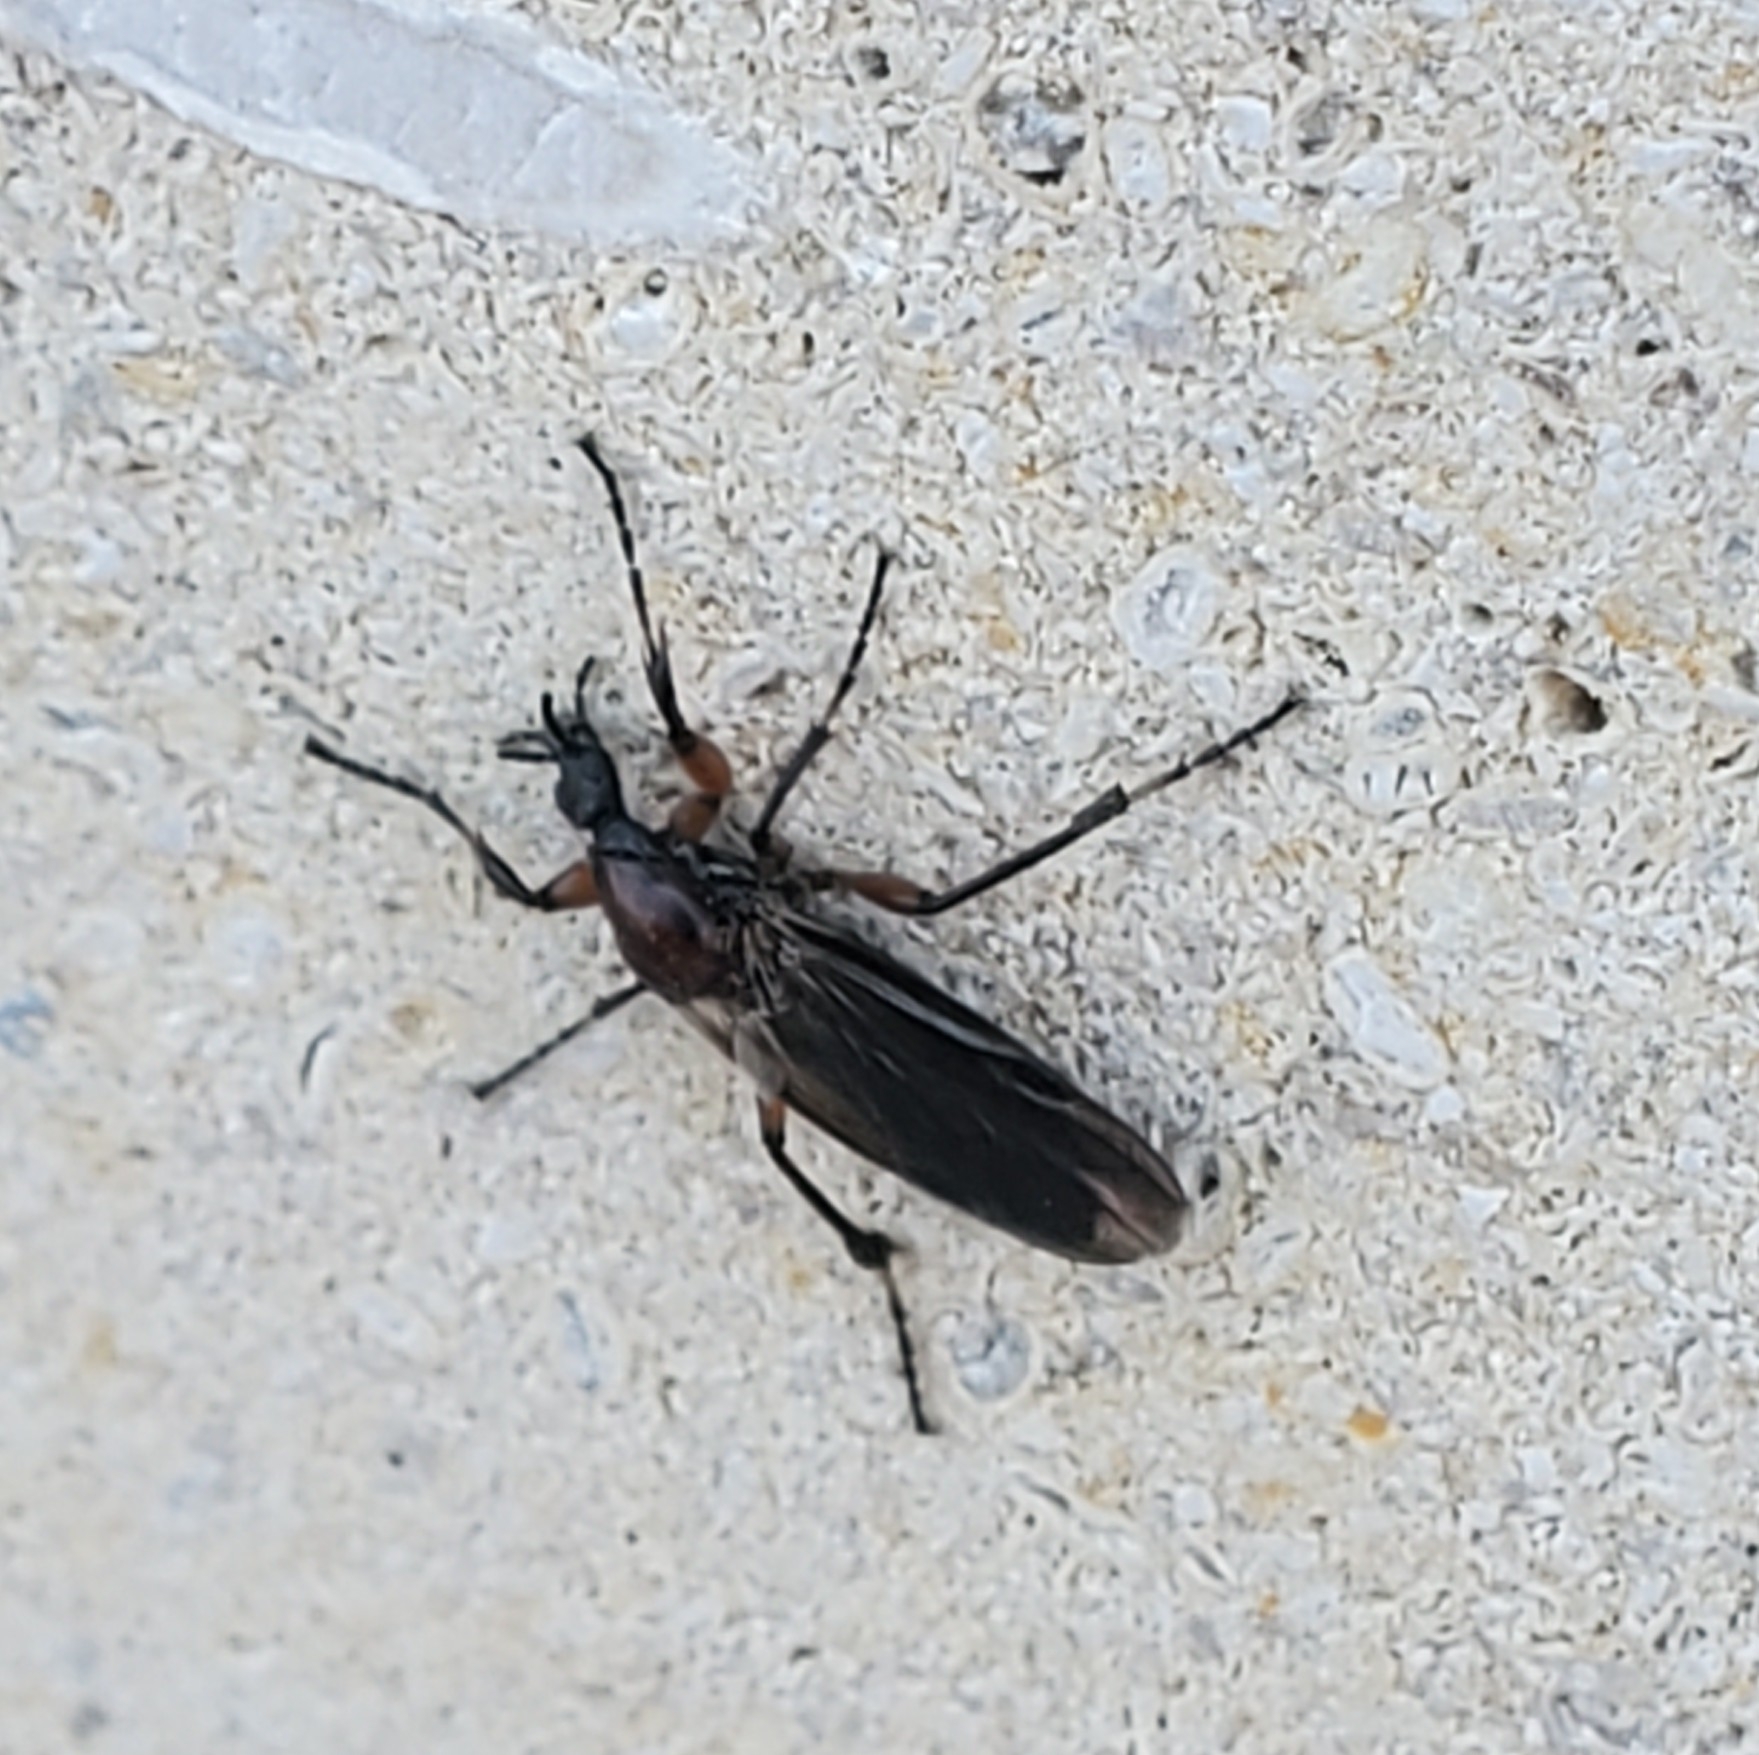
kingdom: Animalia
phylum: Arthropoda
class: Insecta
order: Diptera
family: Bibionidae
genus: Bibio
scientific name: Bibio articulatus
